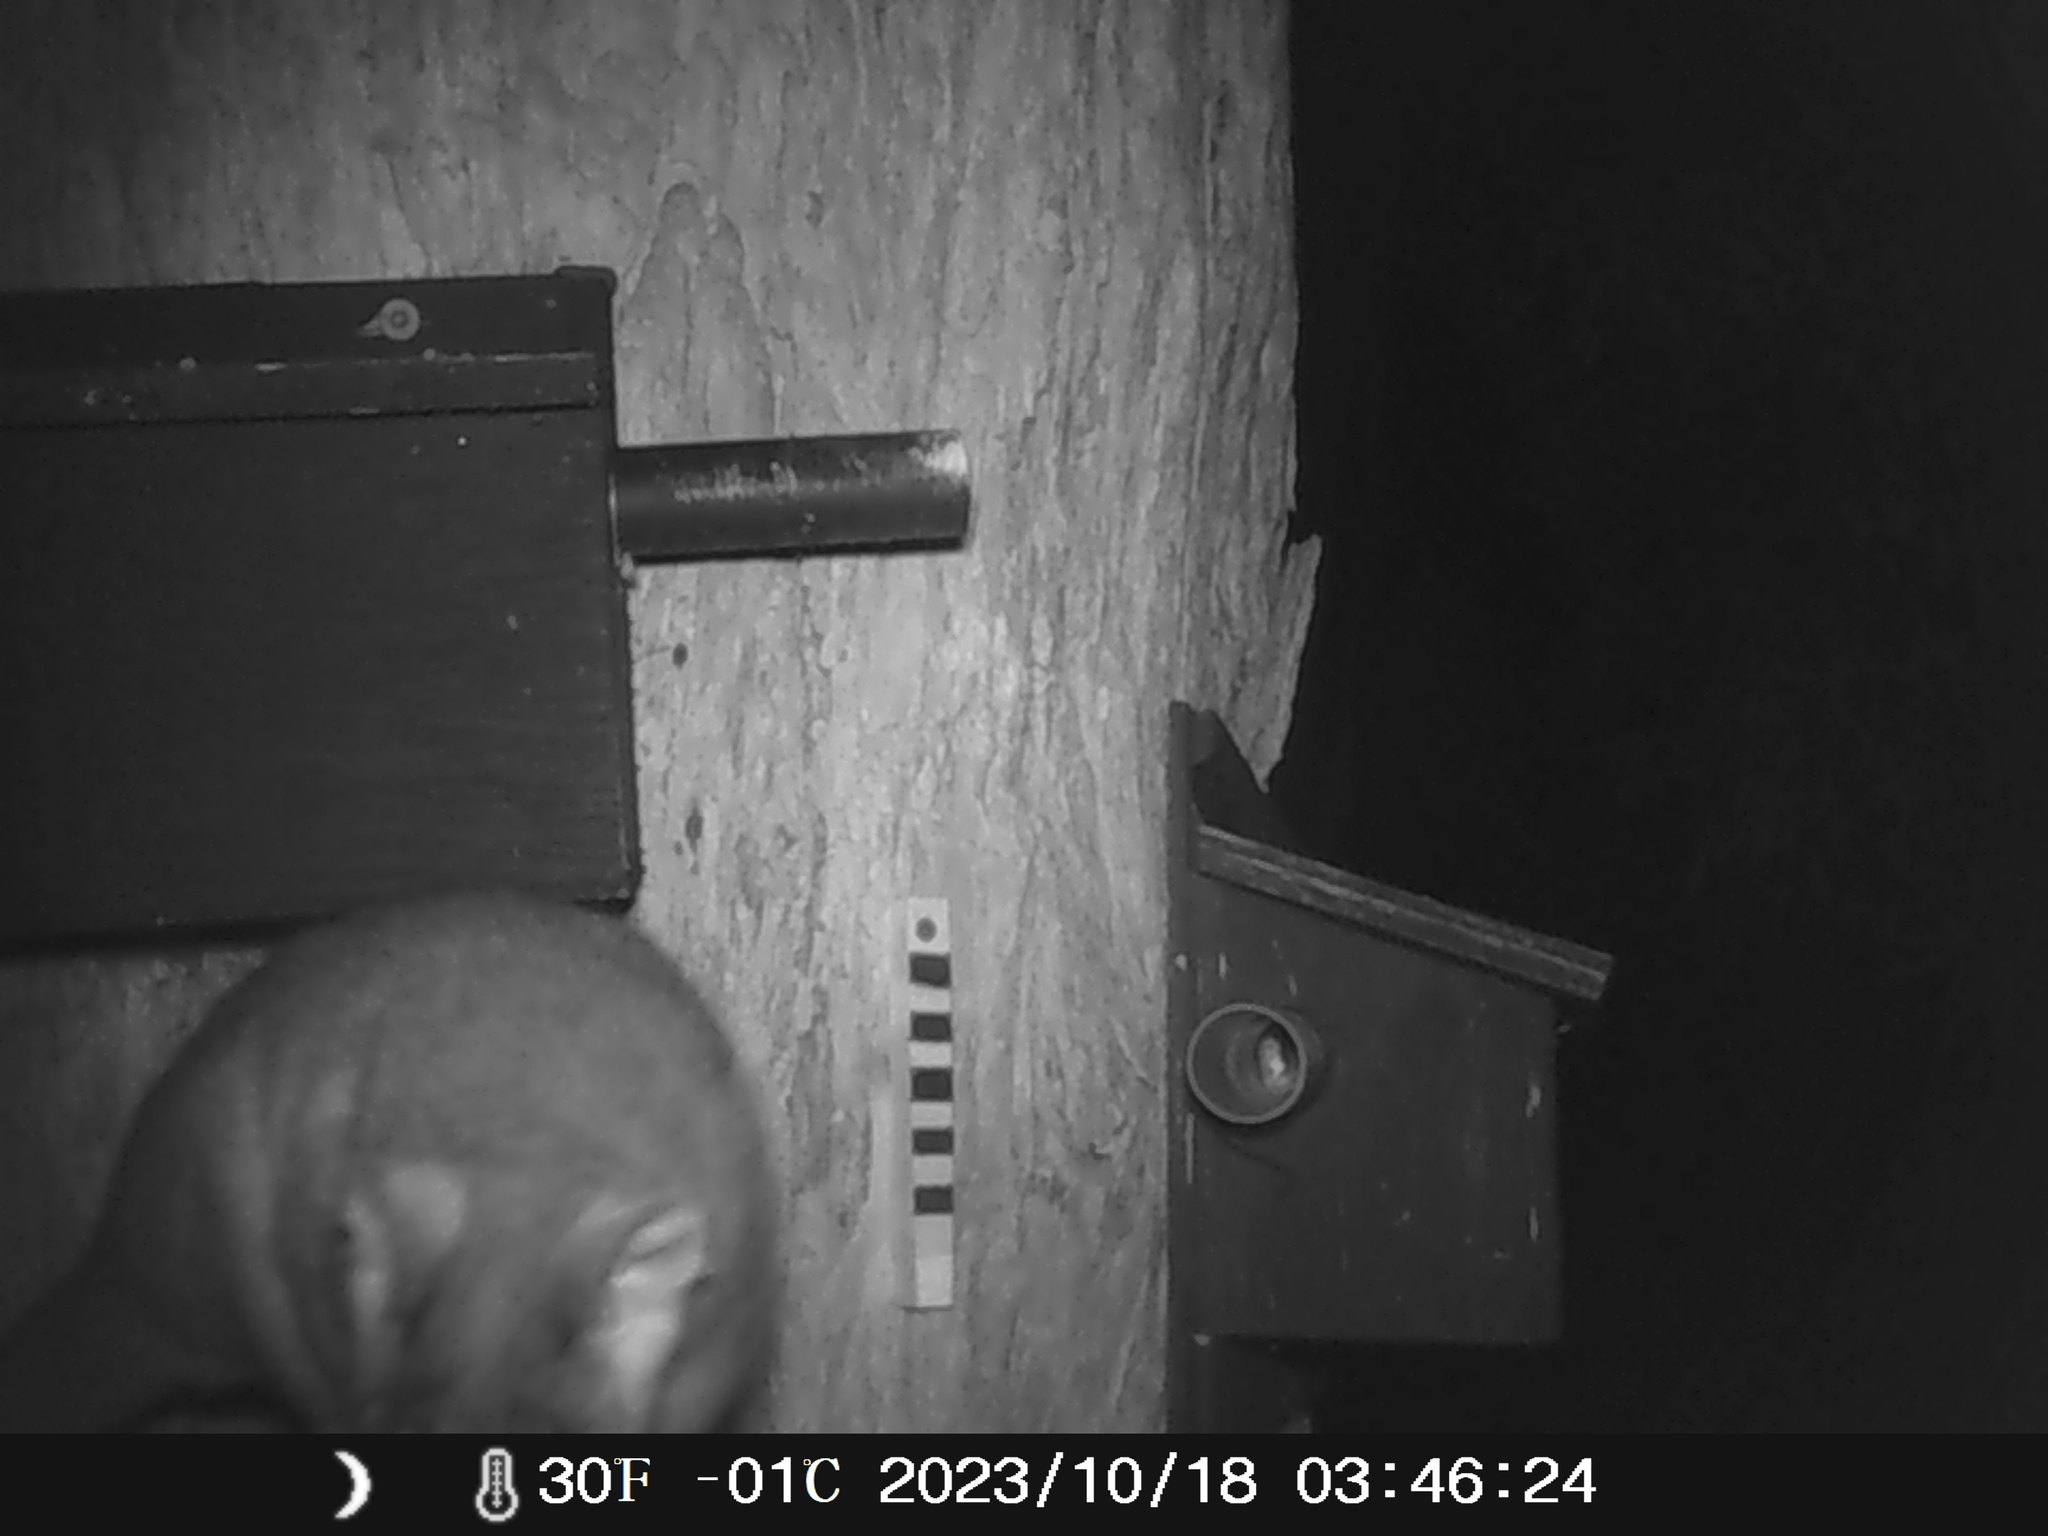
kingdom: Animalia
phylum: Chordata
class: Mammalia
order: Diprotodontia
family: Pseudocheiridae
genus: Pseudocheirus
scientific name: Pseudocheirus peregrinus
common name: Common ringtail possum
